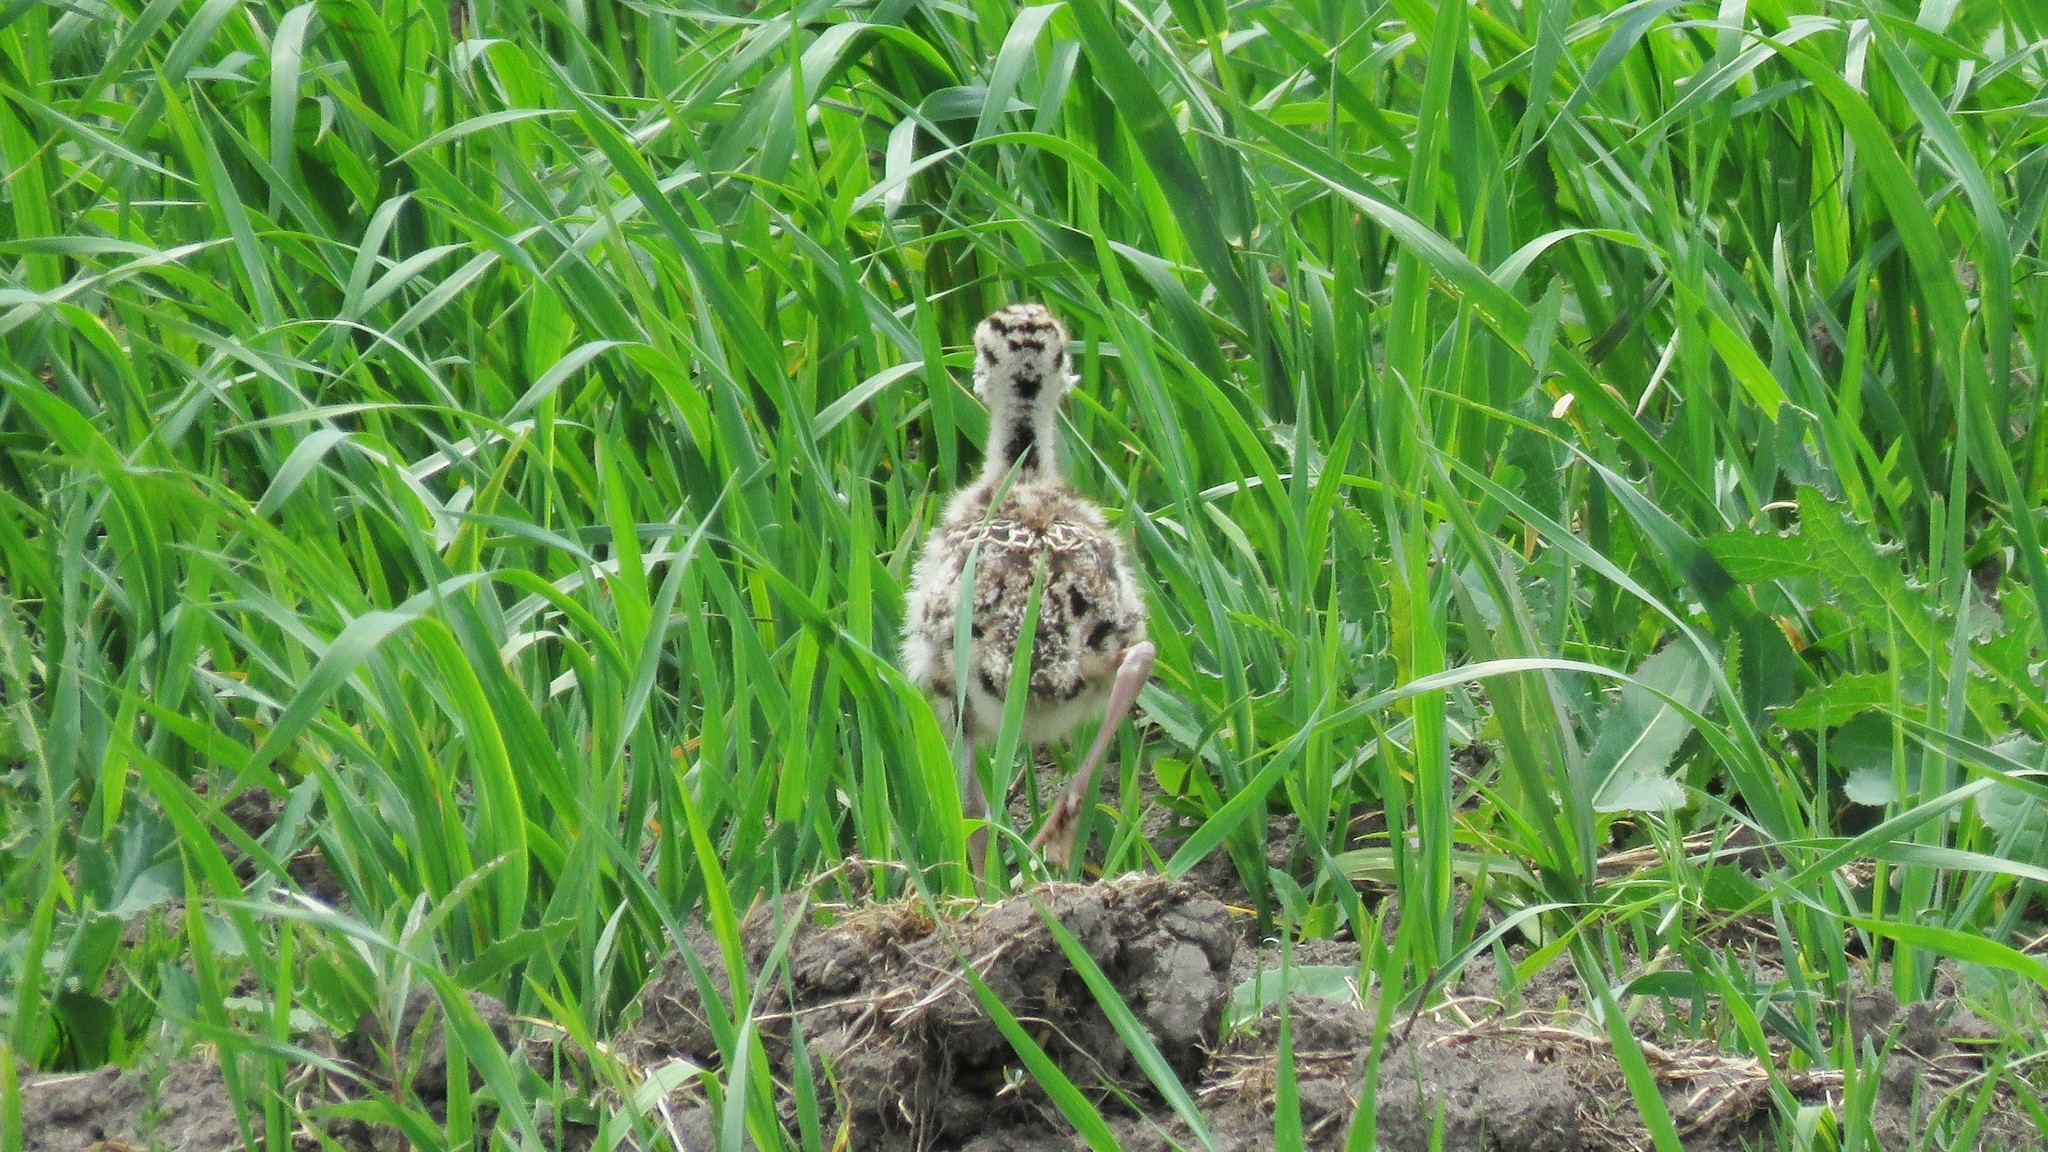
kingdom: Animalia
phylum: Chordata
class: Aves
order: Charadriiformes
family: Scolopacidae
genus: Bartramia
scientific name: Bartramia longicauda
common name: Upland sandpiper
